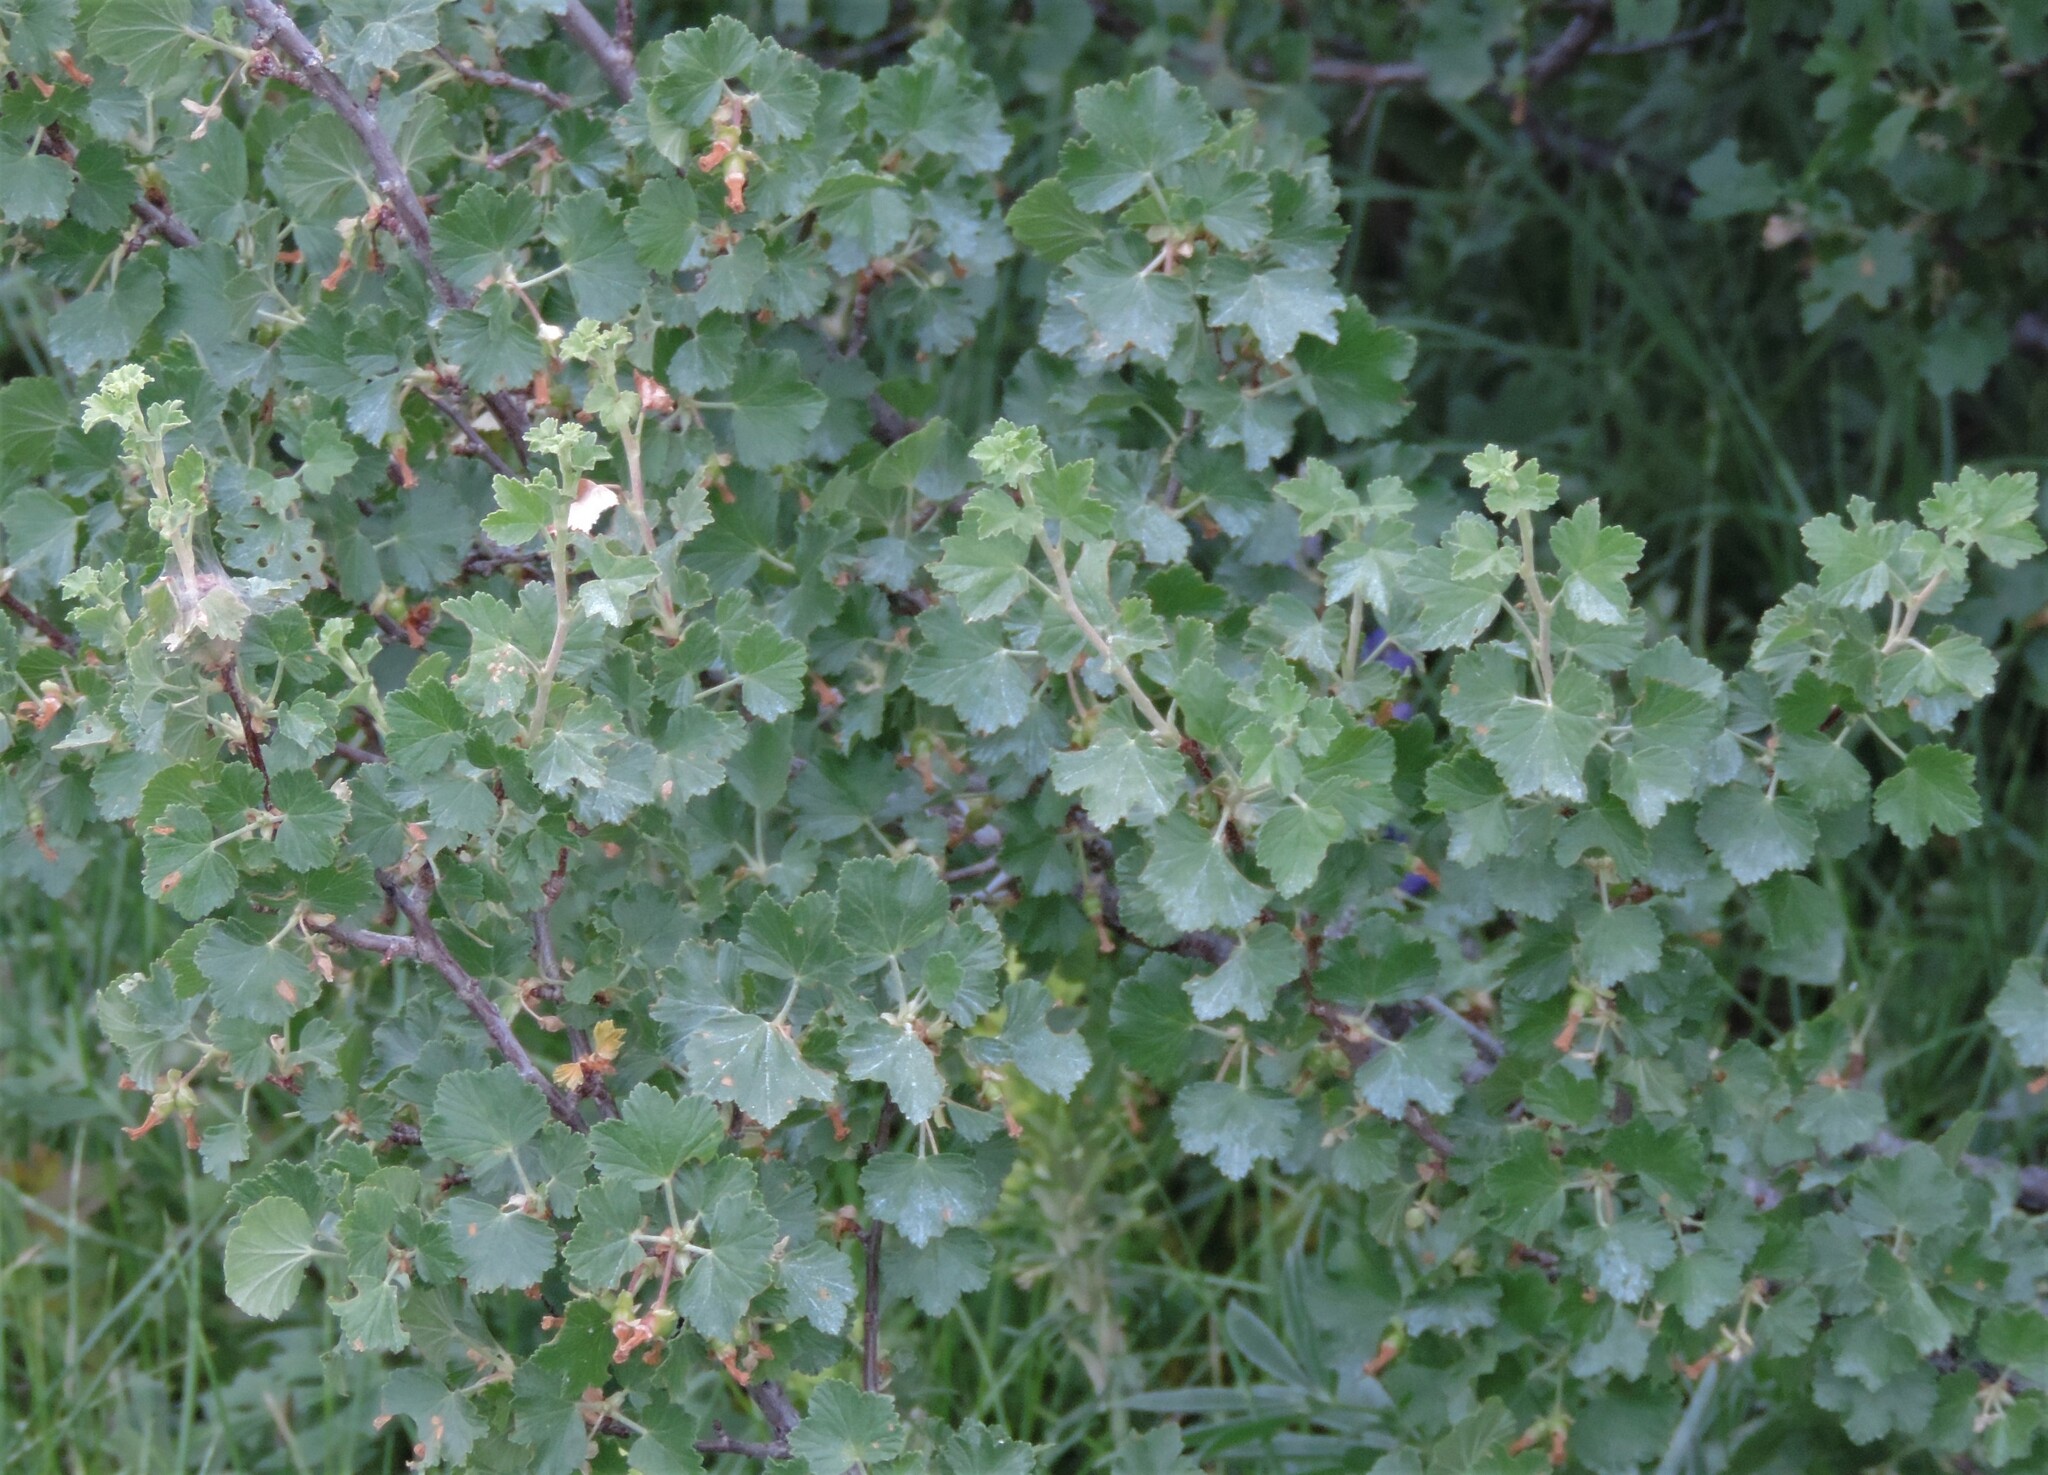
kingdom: Plantae
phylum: Tracheophyta
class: Magnoliopsida
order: Saxifragales
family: Grossulariaceae
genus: Ribes
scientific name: Ribes cereum
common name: Wax currant
